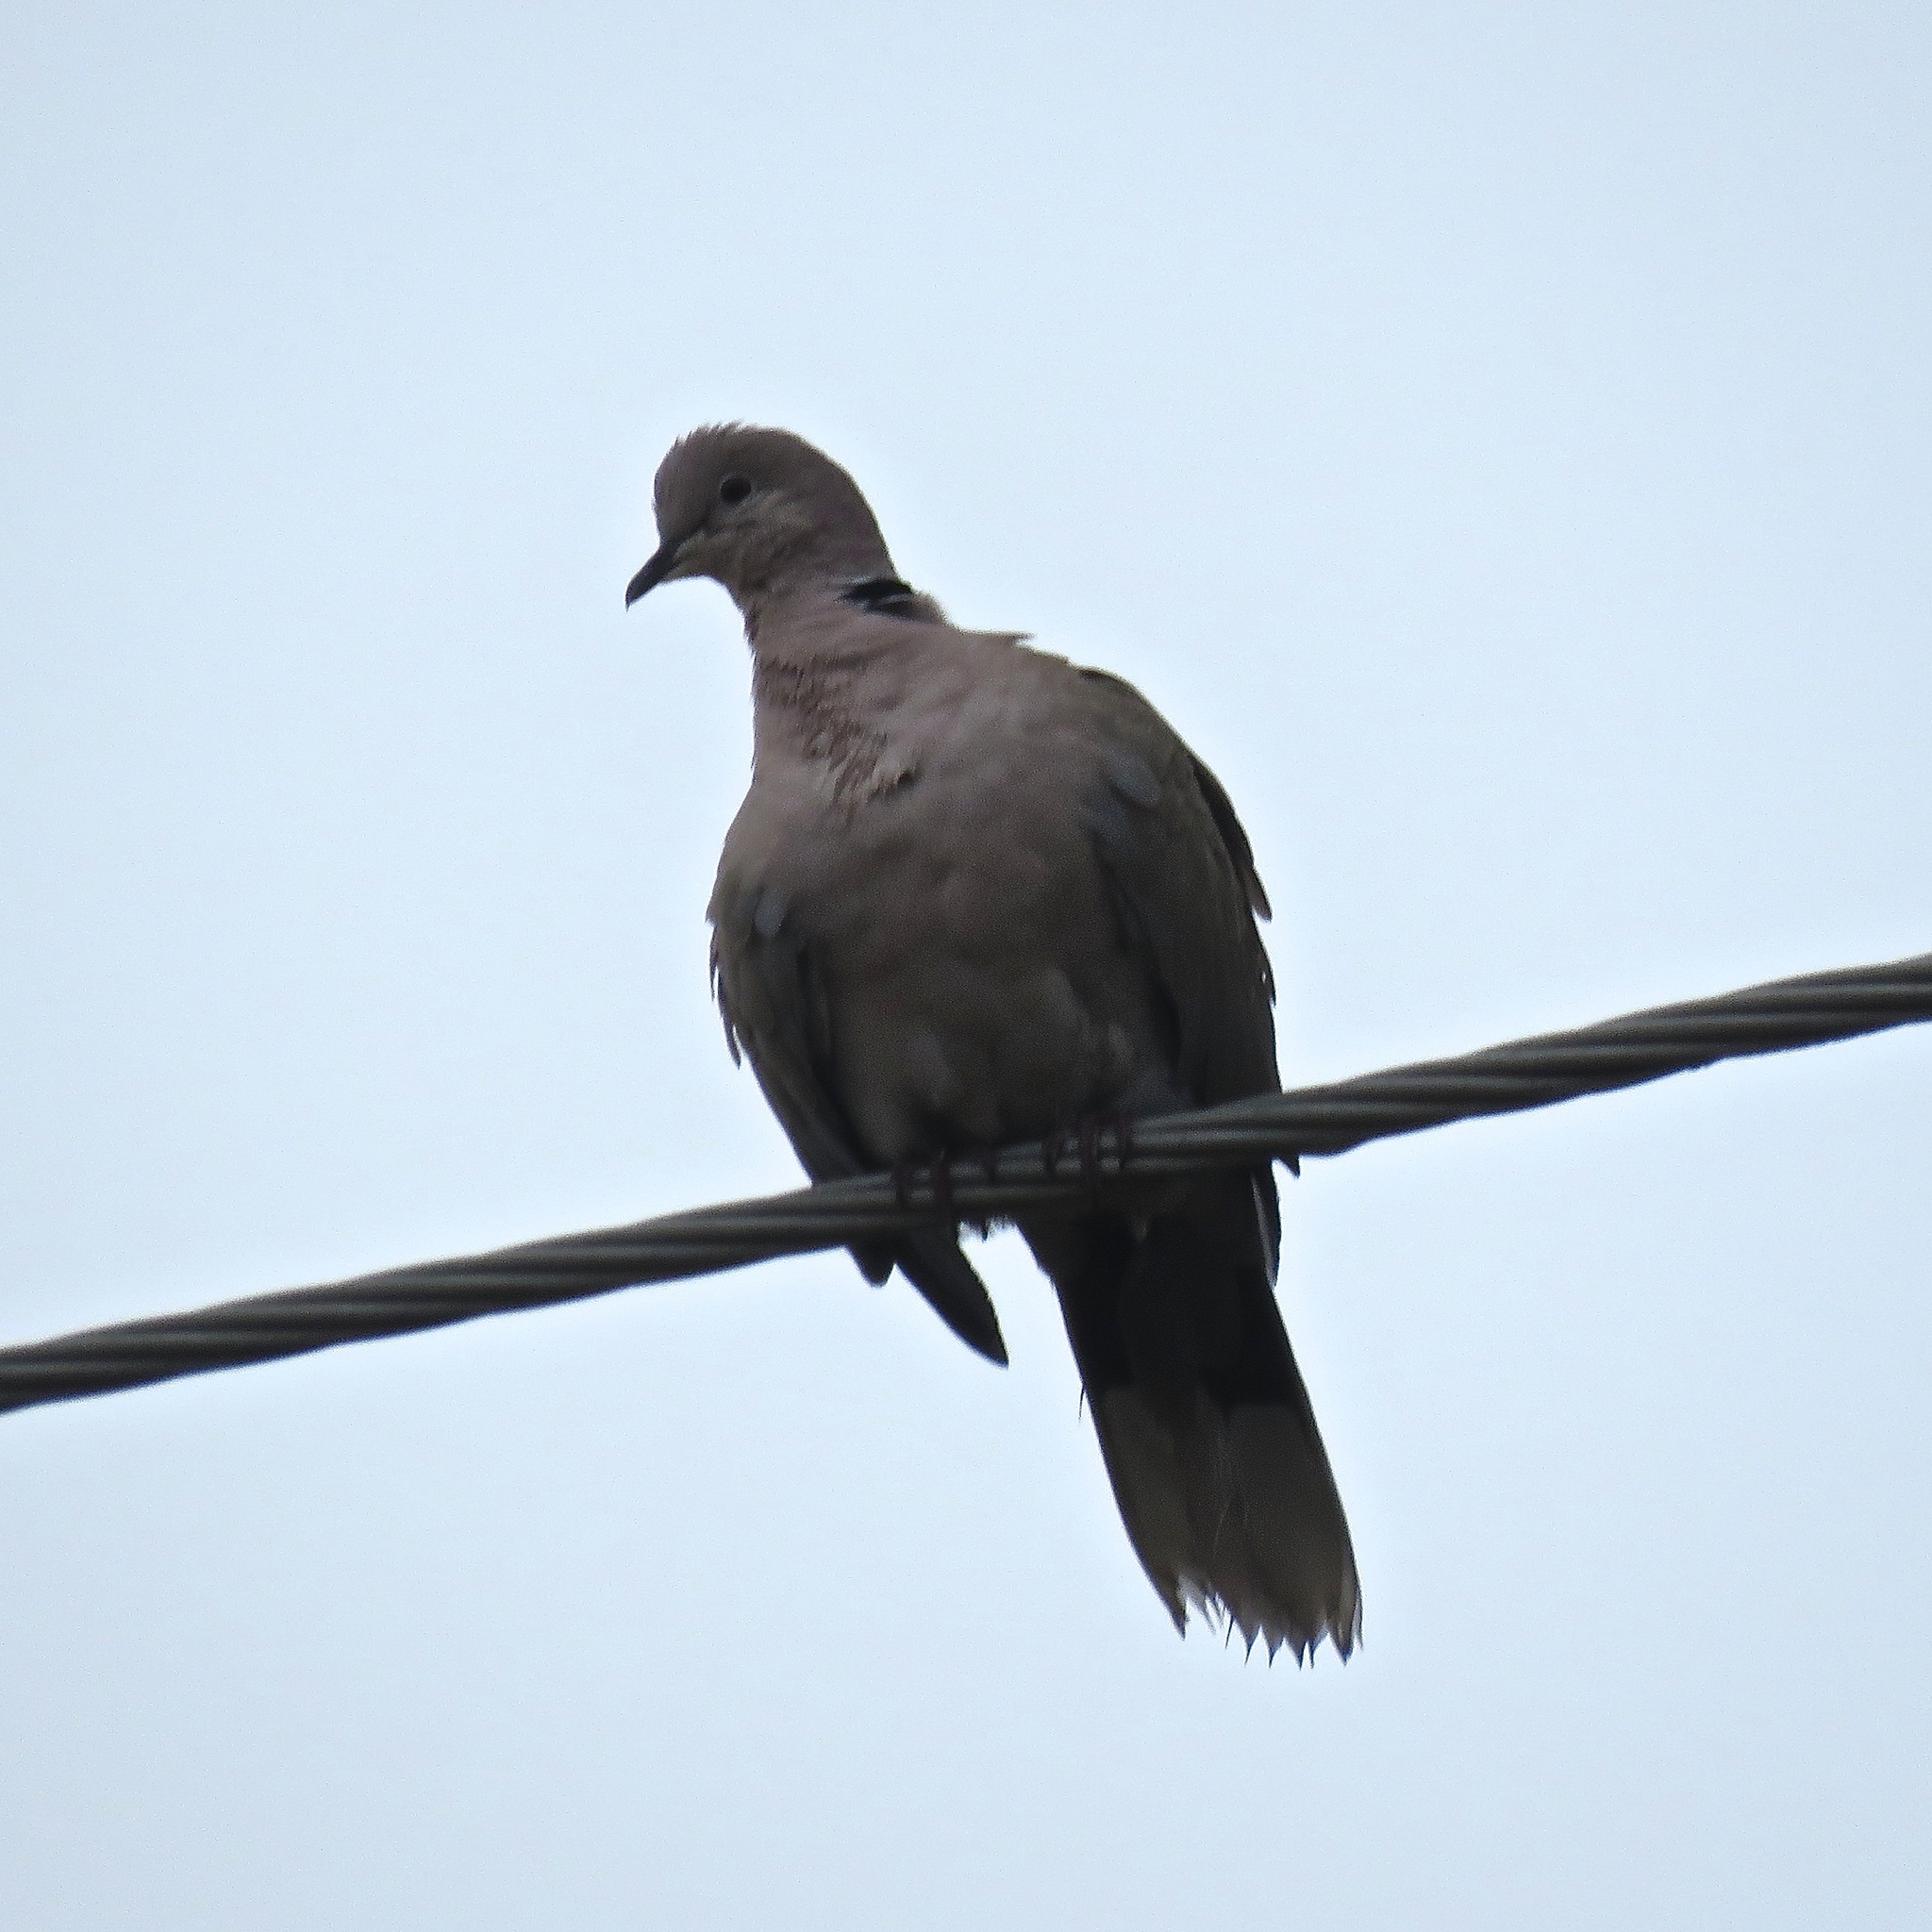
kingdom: Animalia
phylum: Chordata
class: Aves
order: Columbiformes
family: Columbidae
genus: Streptopelia
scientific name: Streptopelia decaocto
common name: Eurasian collared dove
